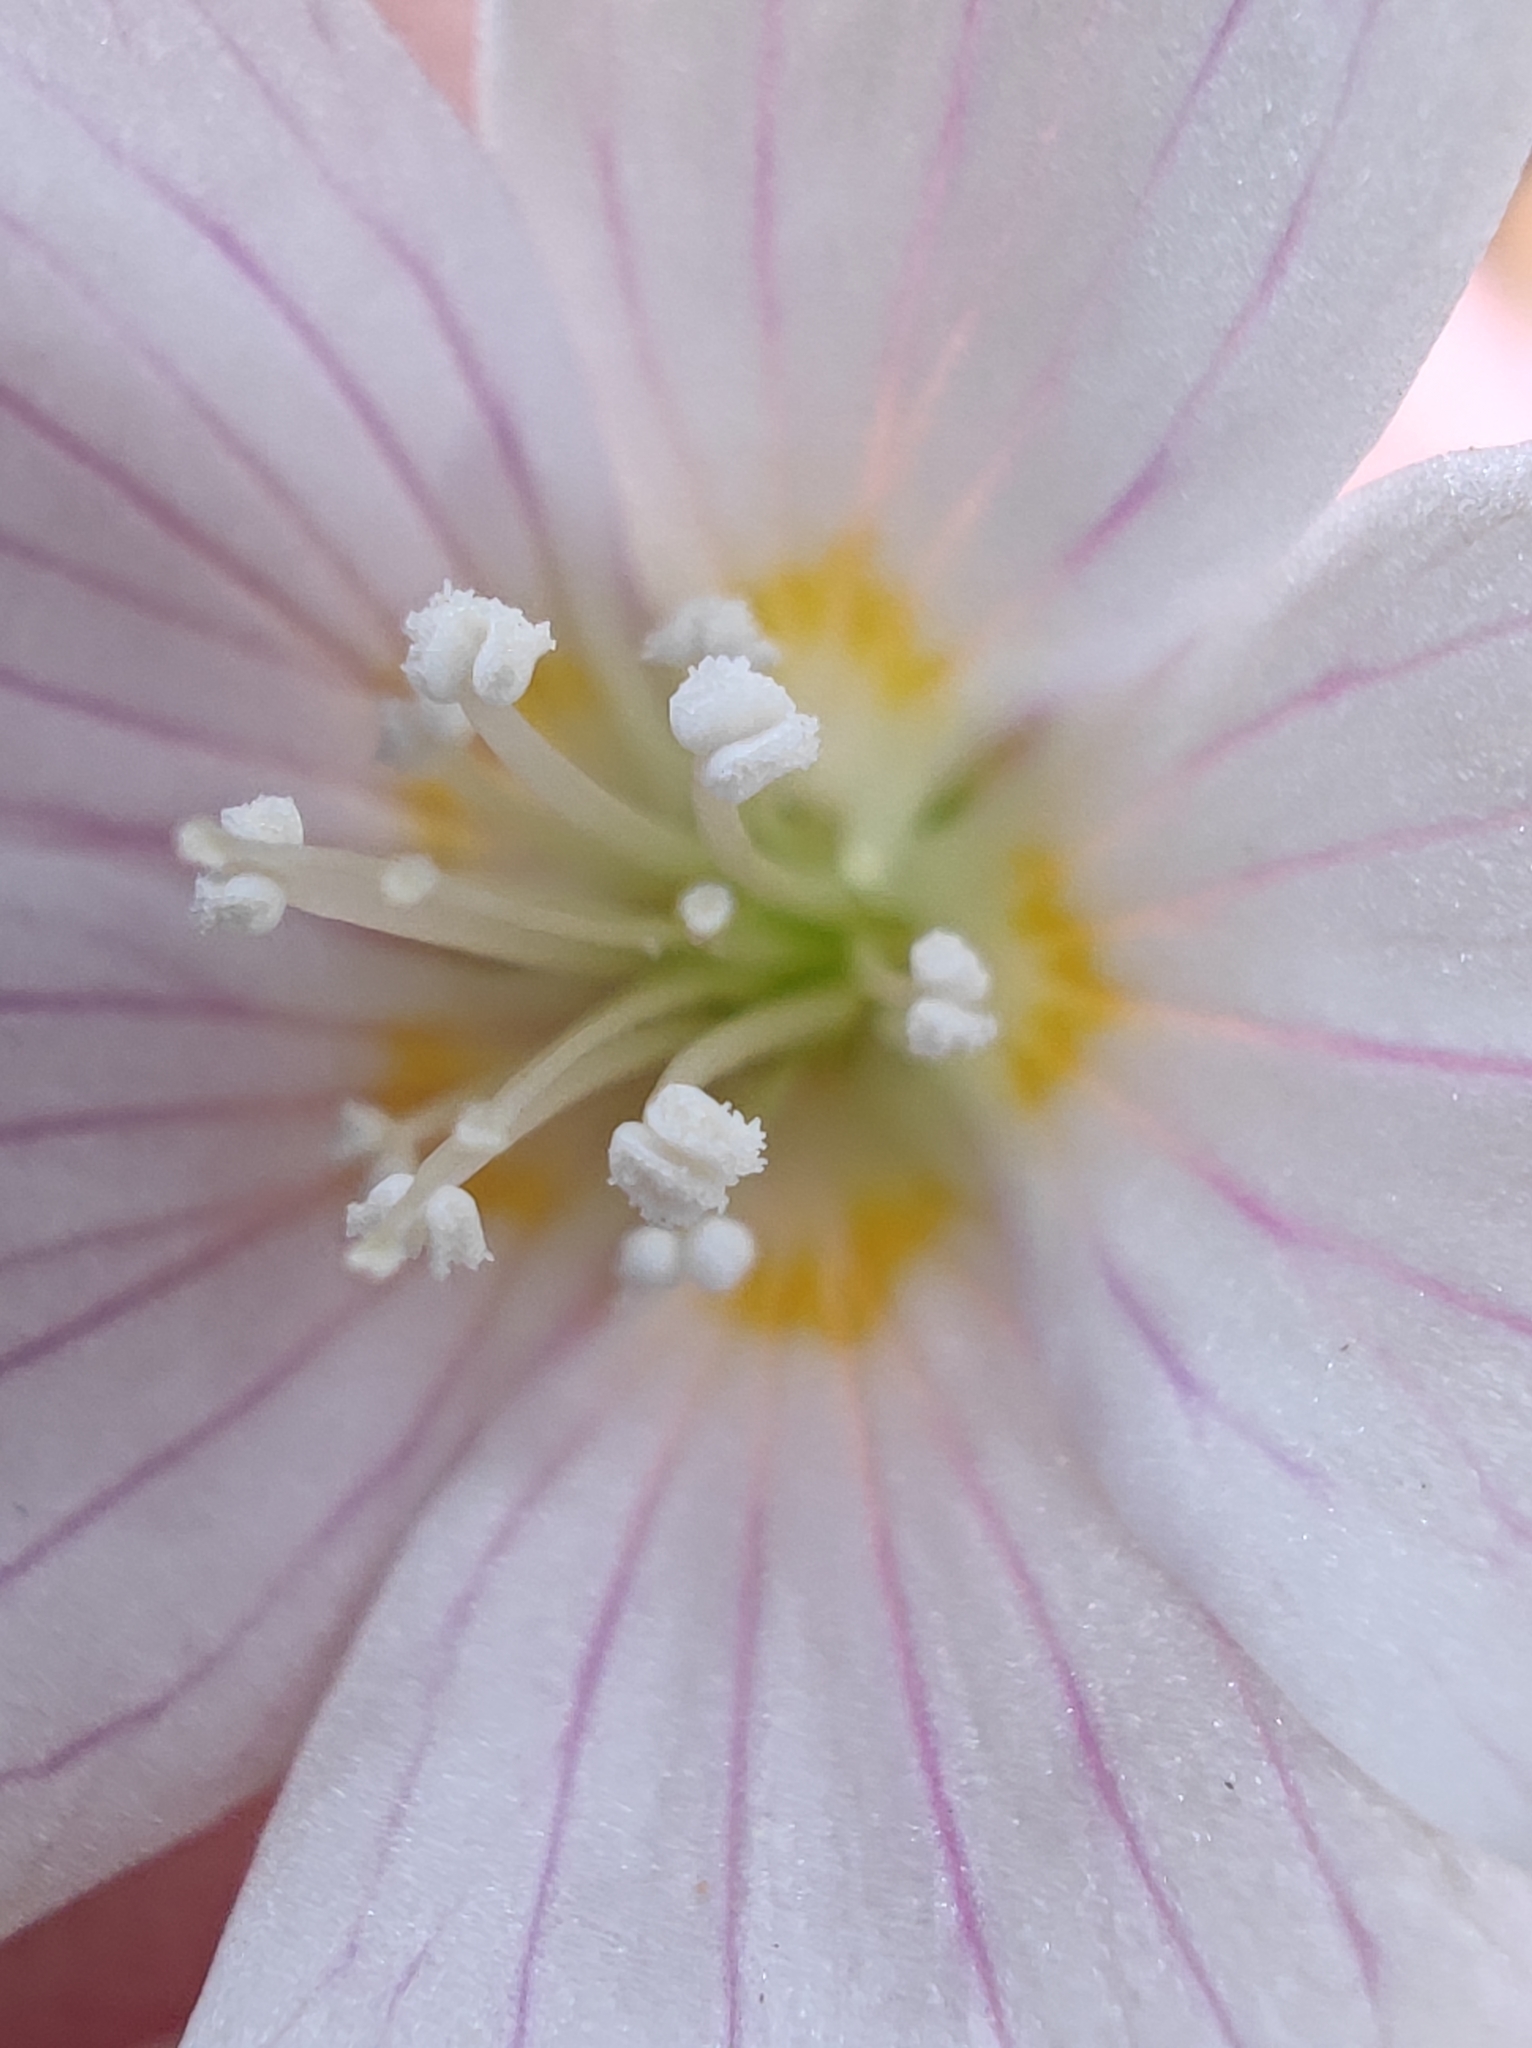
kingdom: Plantae
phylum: Tracheophyta
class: Magnoliopsida
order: Oxalidales
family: Oxalidaceae
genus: Oxalis
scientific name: Oxalis acetosella
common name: Wood-sorrel
